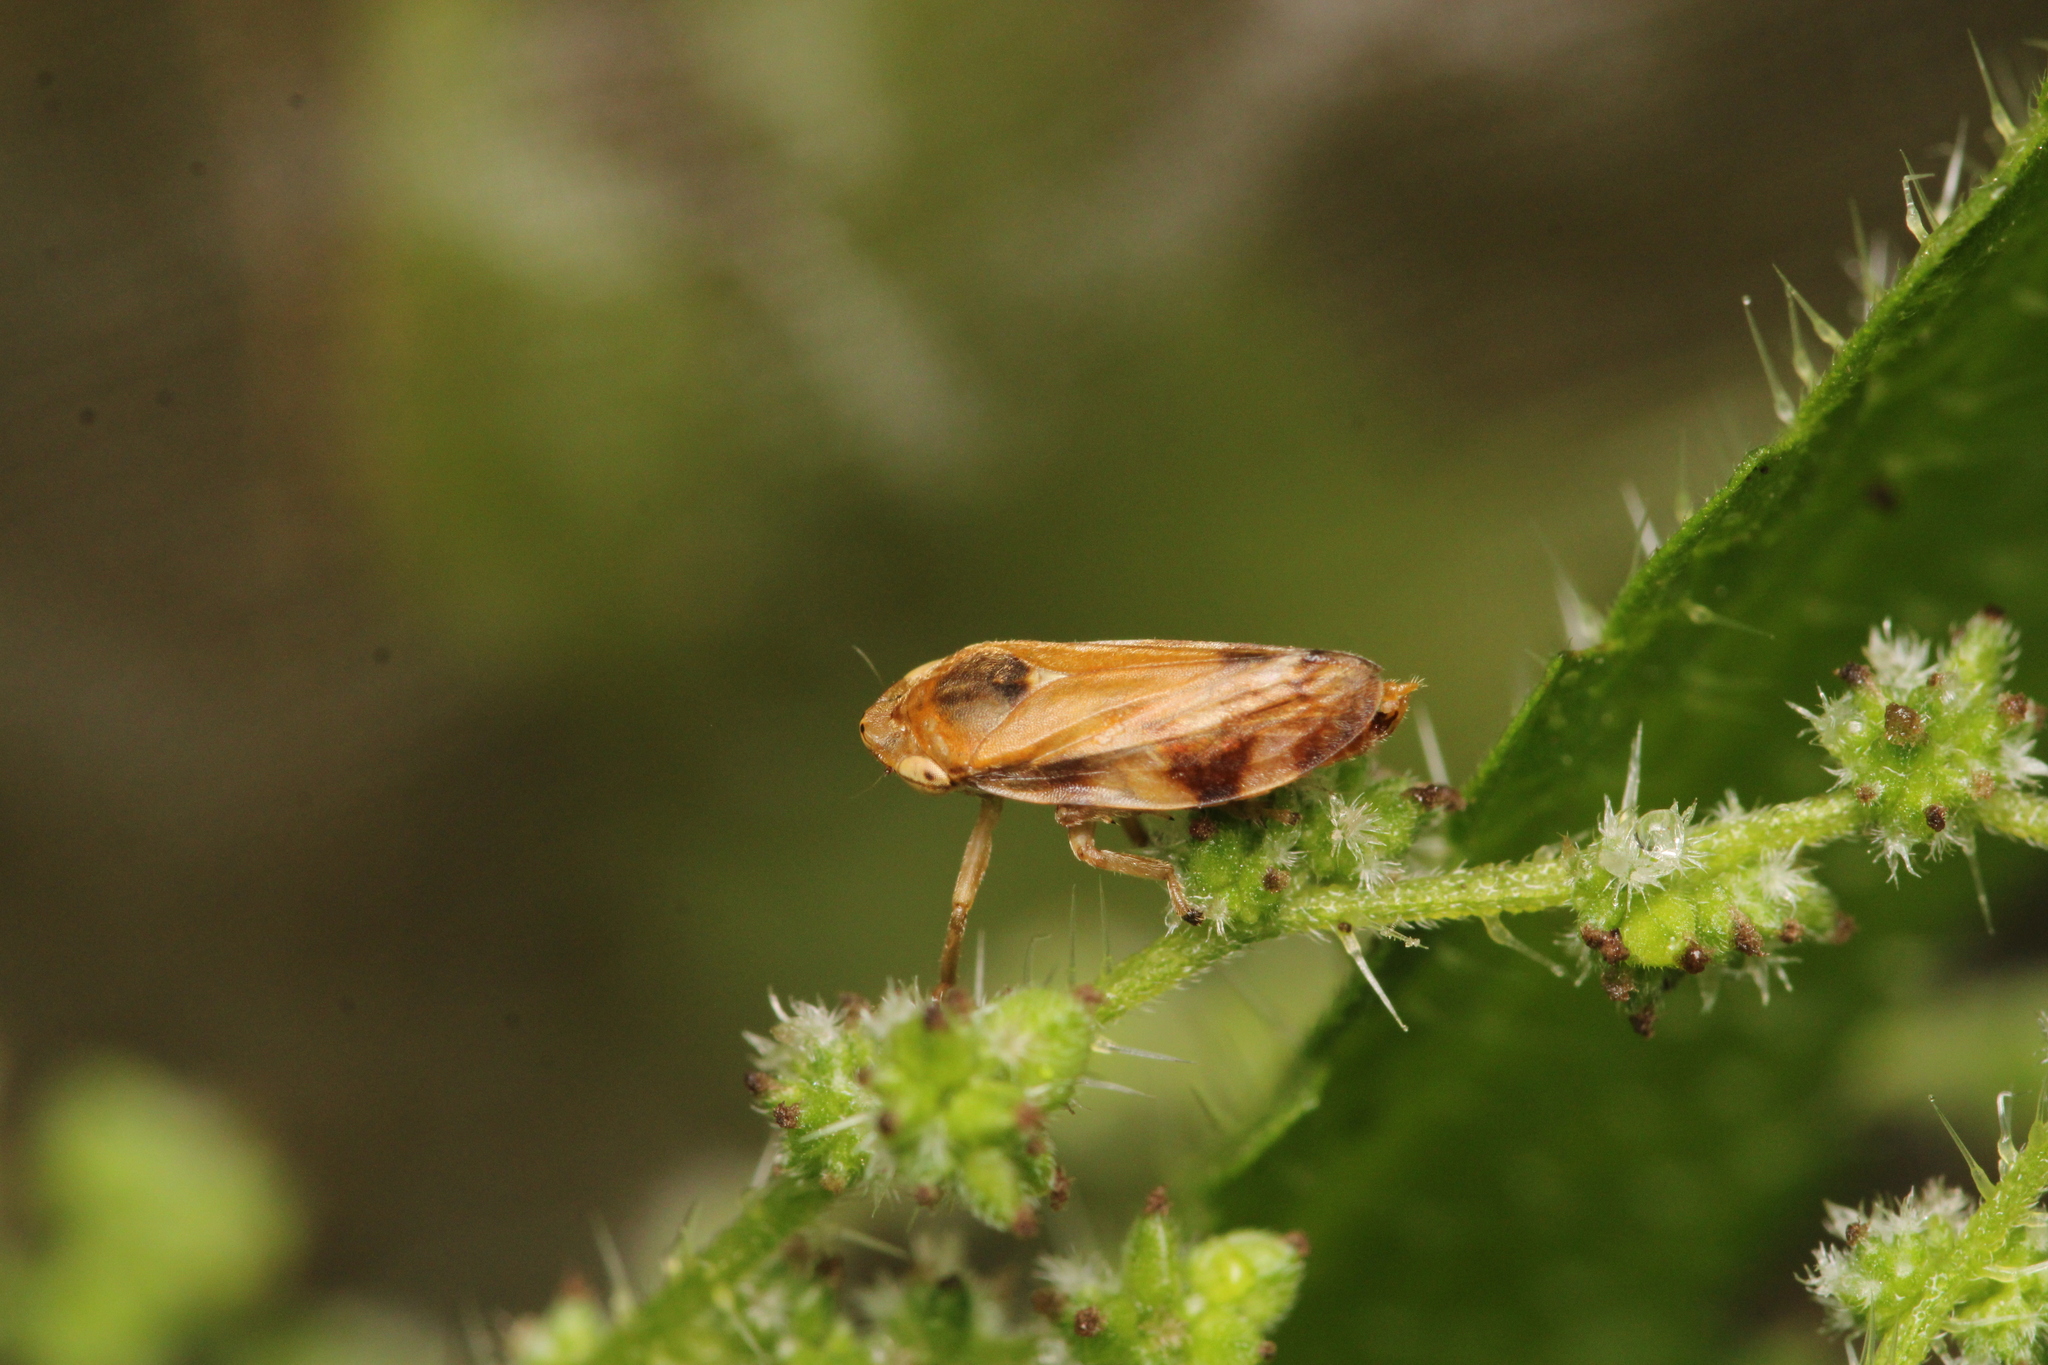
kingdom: Animalia
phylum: Arthropoda
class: Insecta
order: Hemiptera
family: Aphrophoridae
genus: Philaenus
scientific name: Philaenus spumarius
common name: Meadow spittlebug
